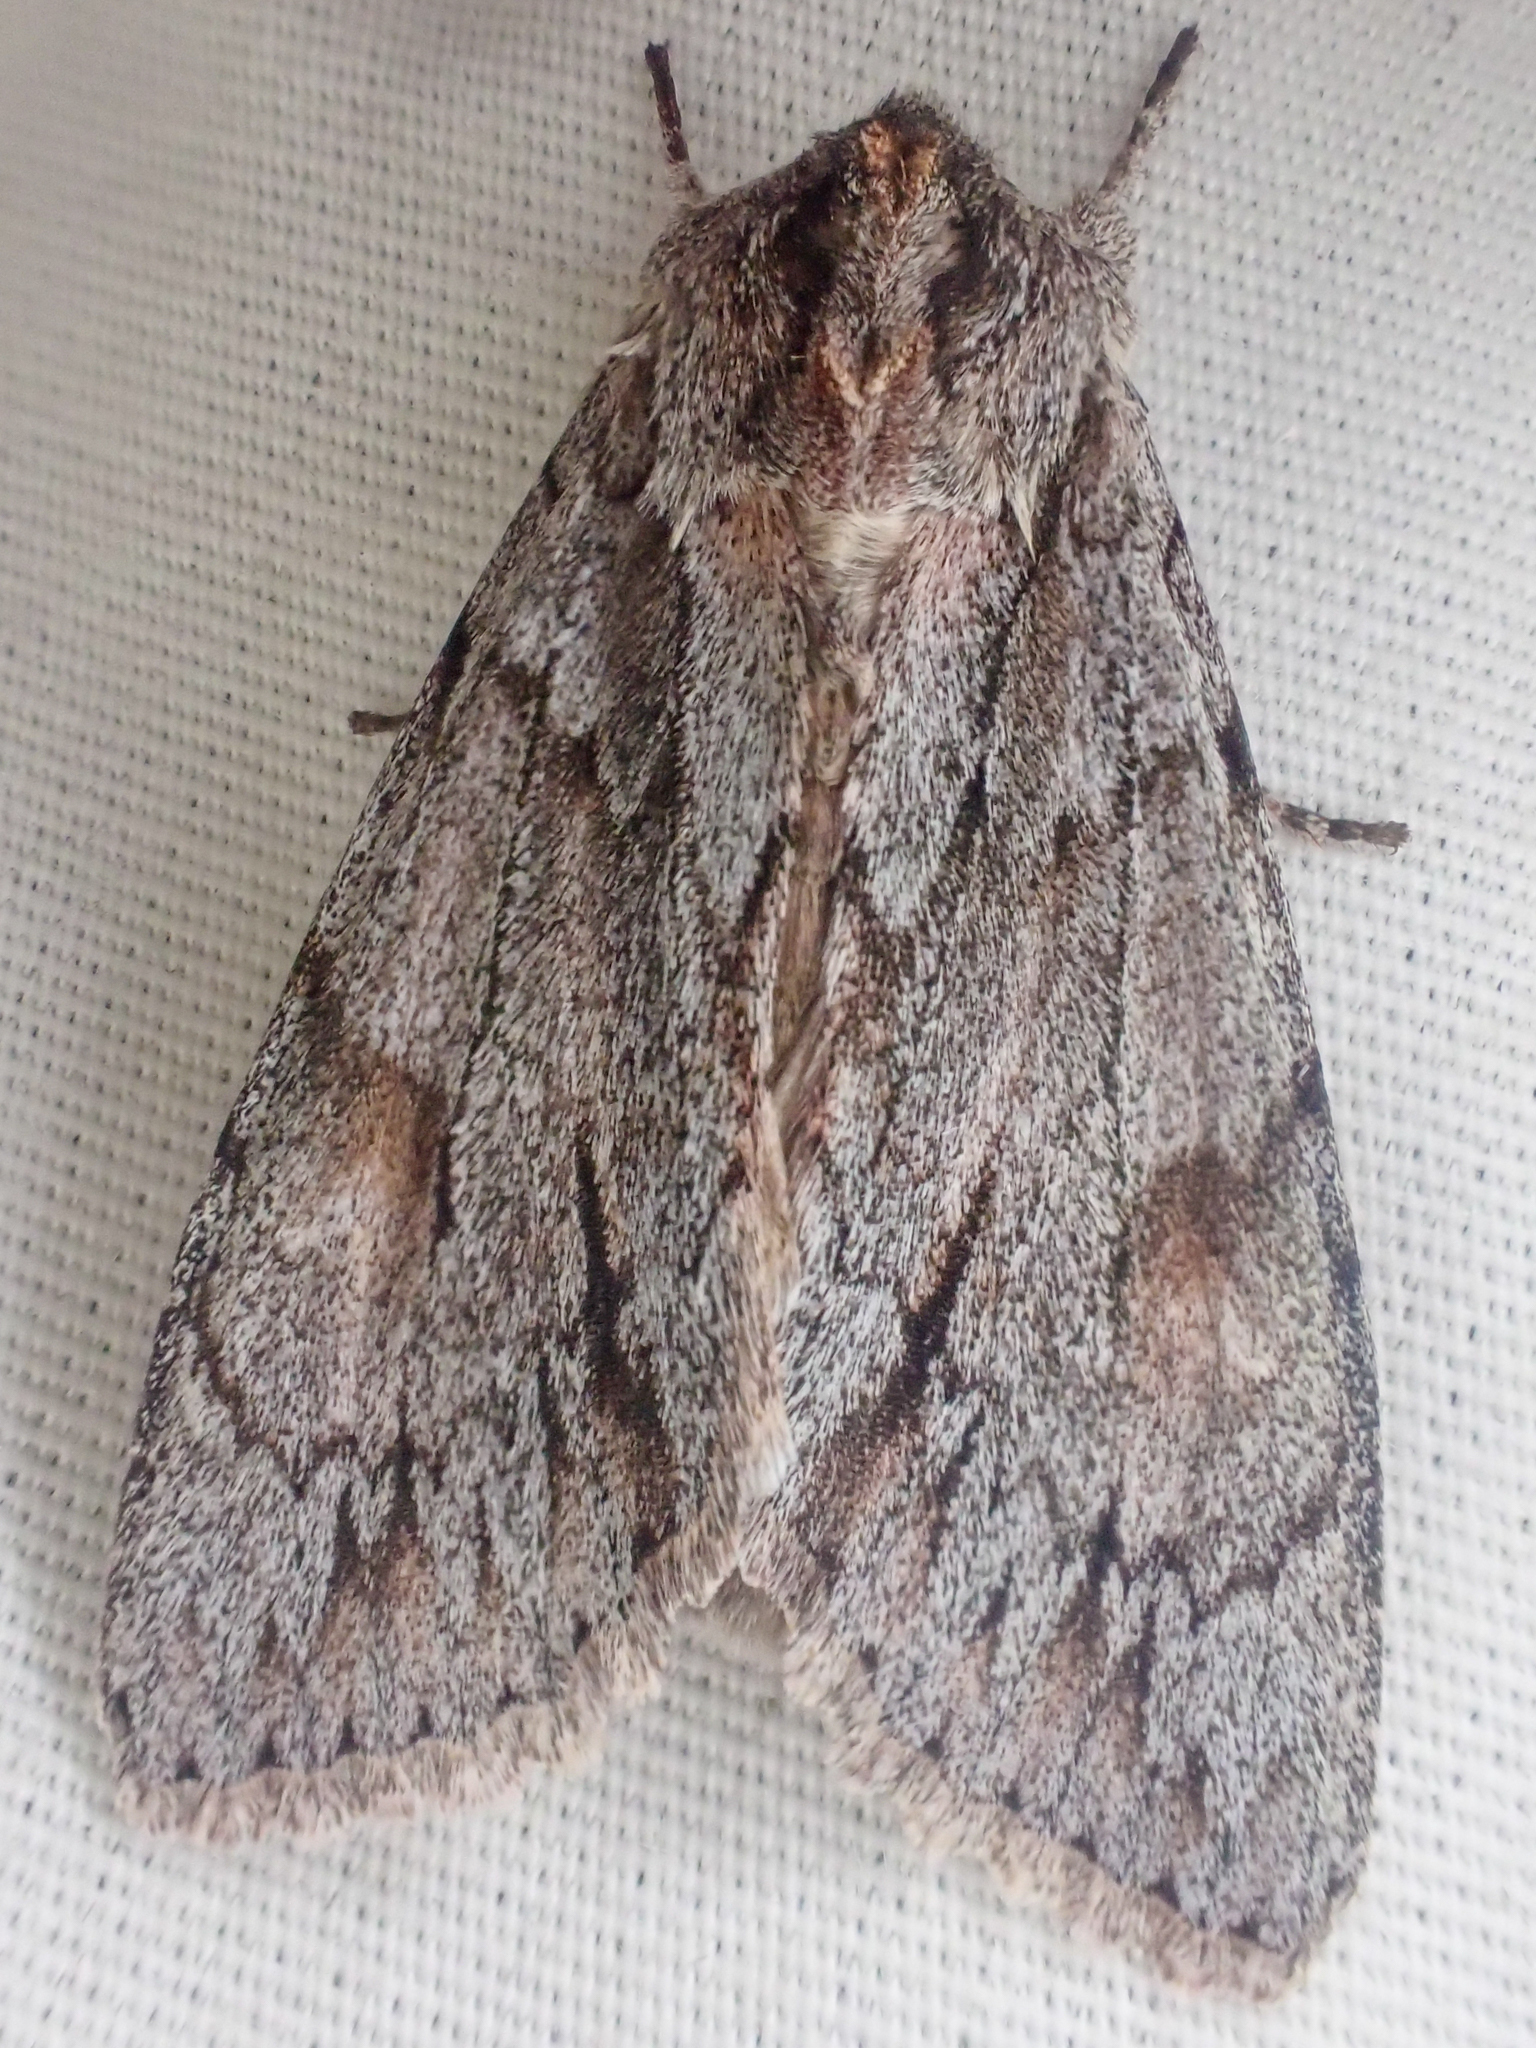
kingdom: Animalia
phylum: Arthropoda
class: Insecta
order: Lepidoptera
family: Noctuidae
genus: Andropolia
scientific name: Andropolia theodori
